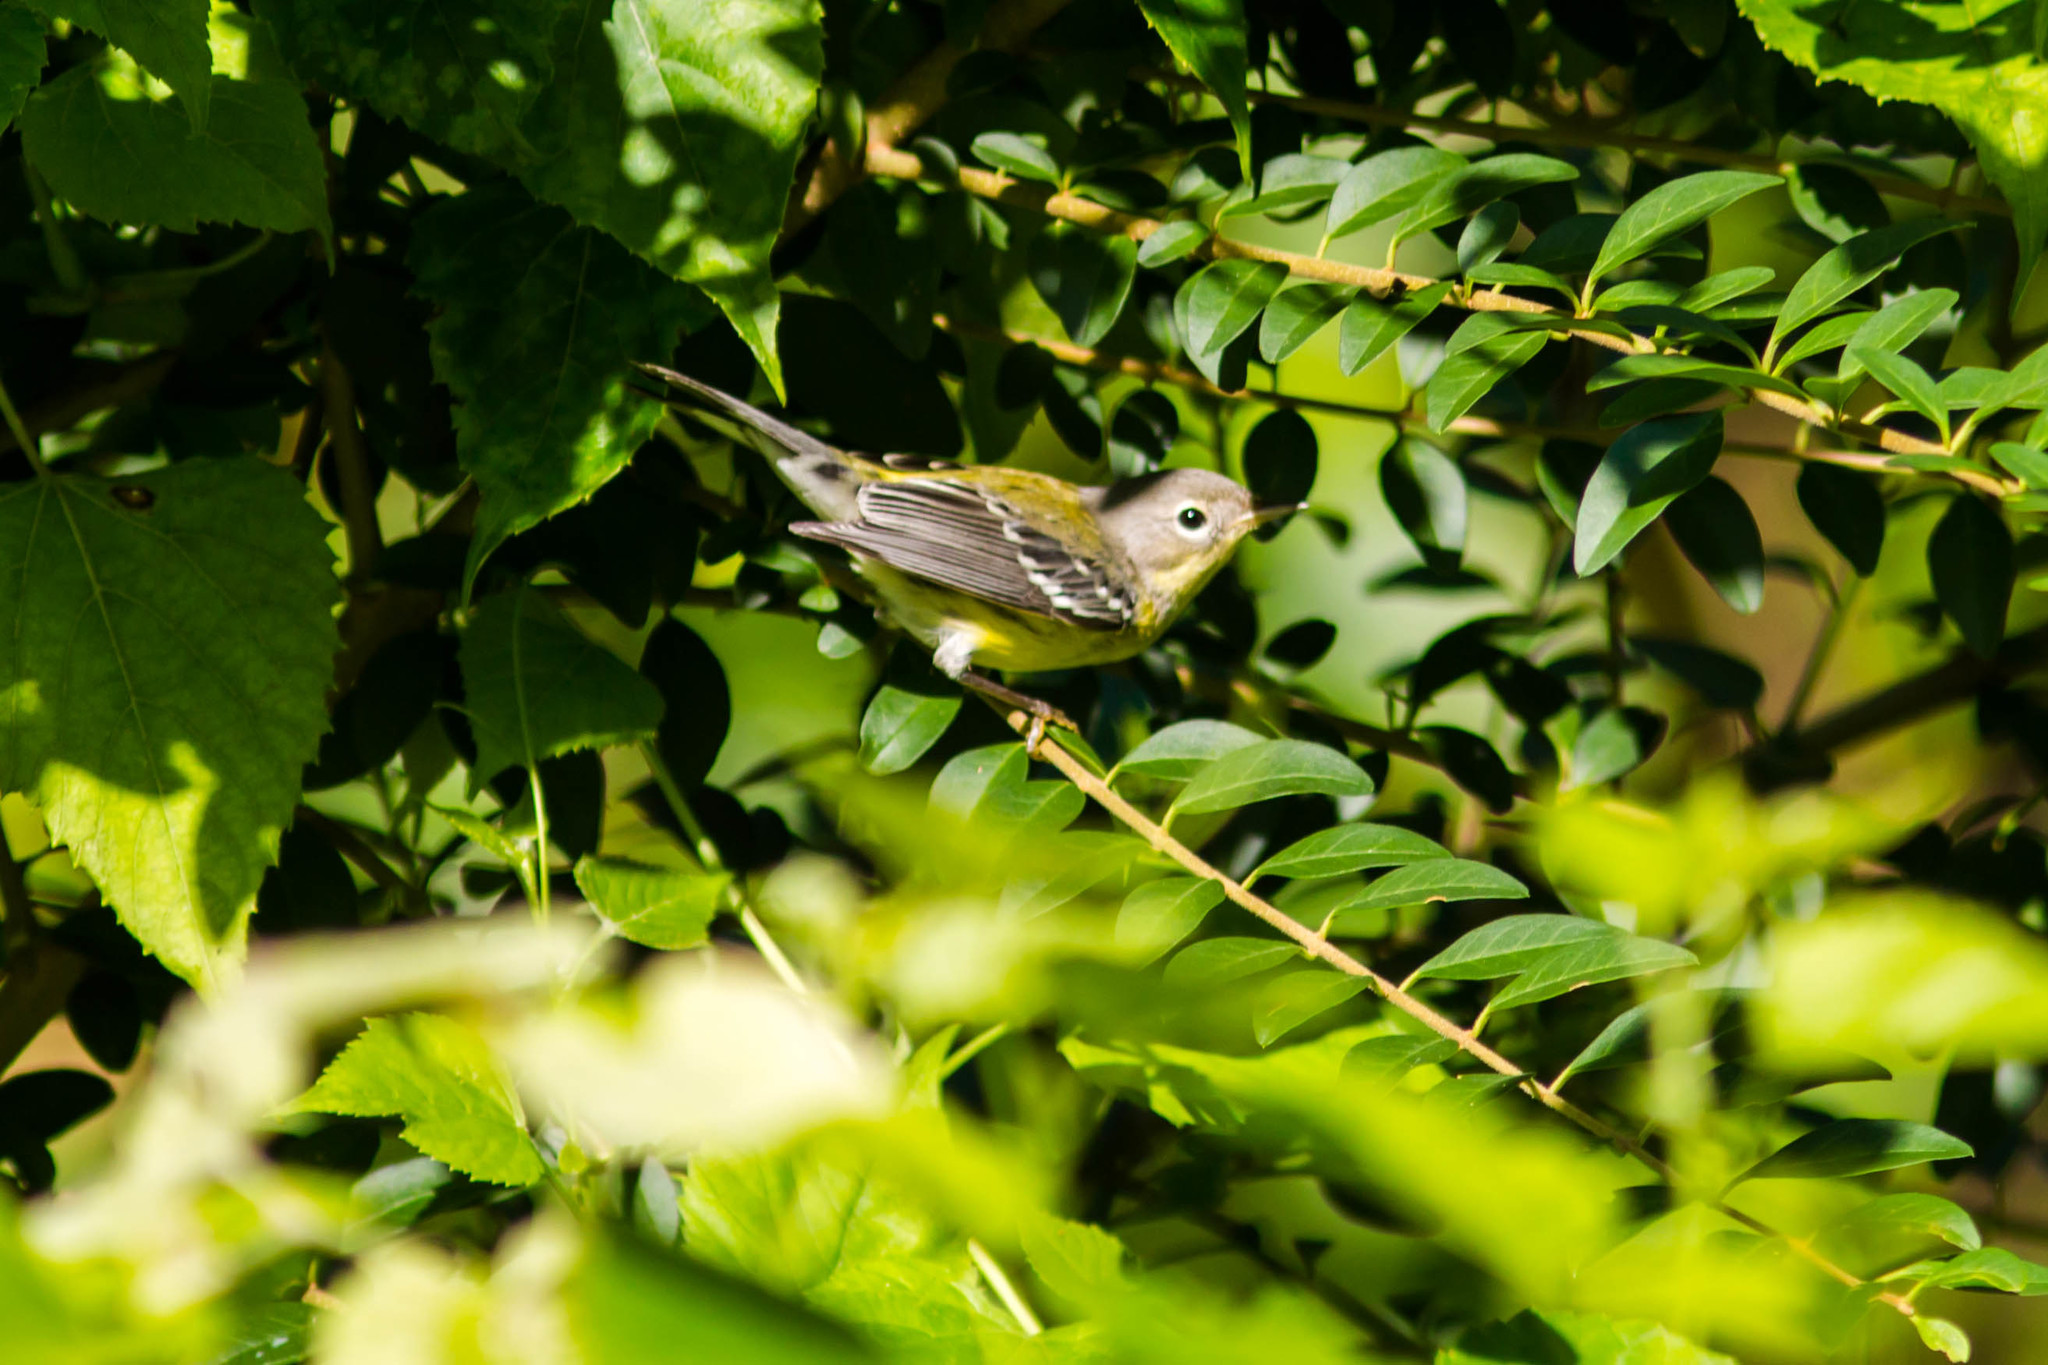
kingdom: Animalia
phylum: Chordata
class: Aves
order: Passeriformes
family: Parulidae
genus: Setophaga
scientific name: Setophaga magnolia
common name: Magnolia warbler
